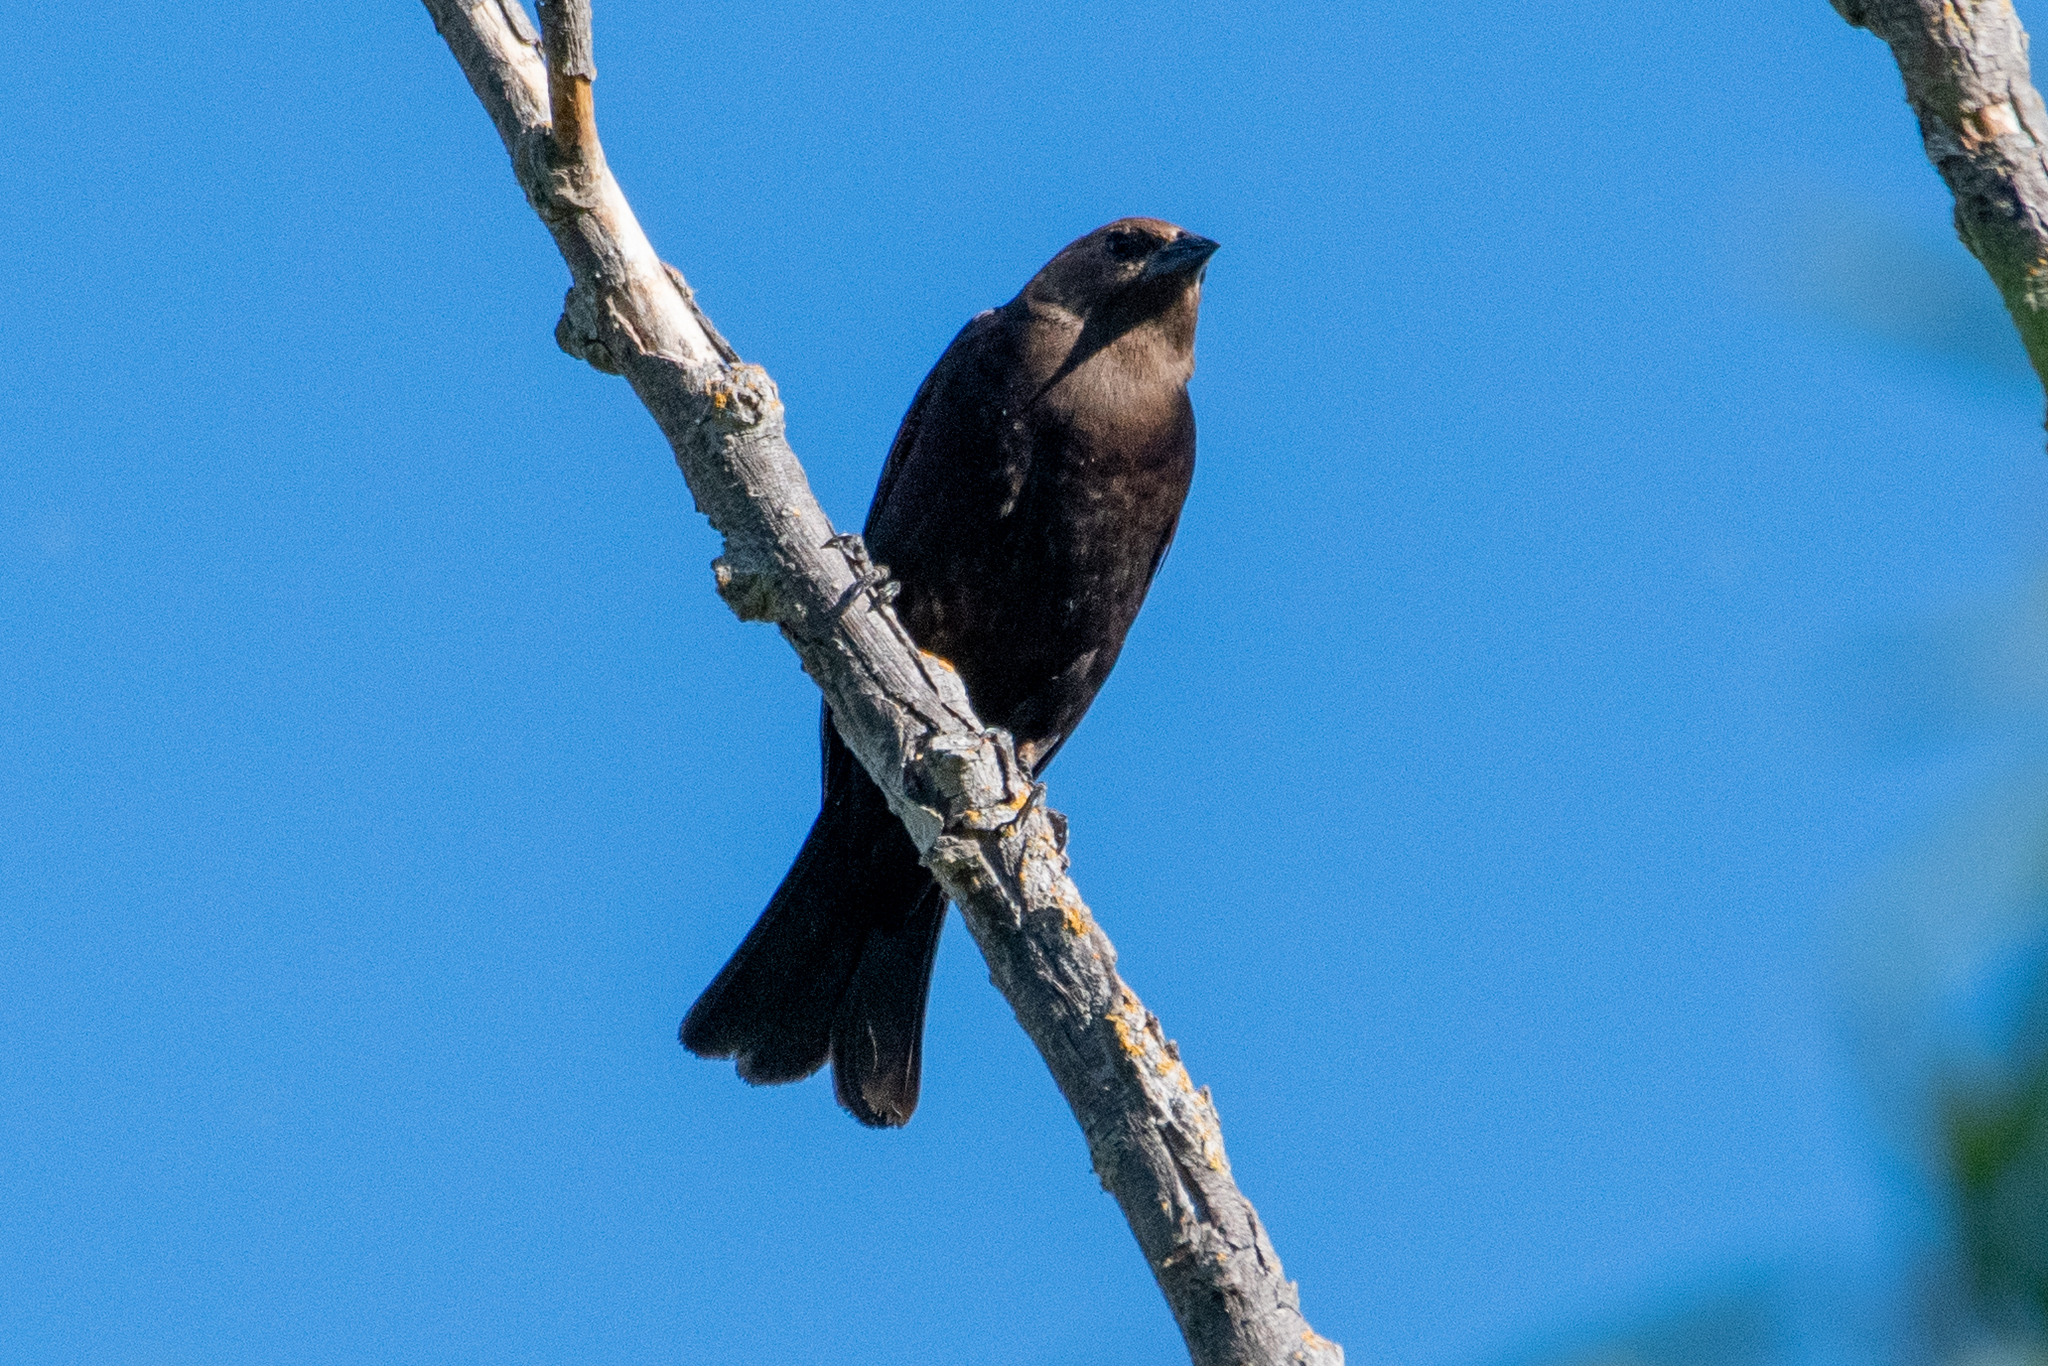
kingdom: Animalia
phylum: Chordata
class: Aves
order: Passeriformes
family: Icteridae
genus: Molothrus
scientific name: Molothrus ater
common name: Brown-headed cowbird
